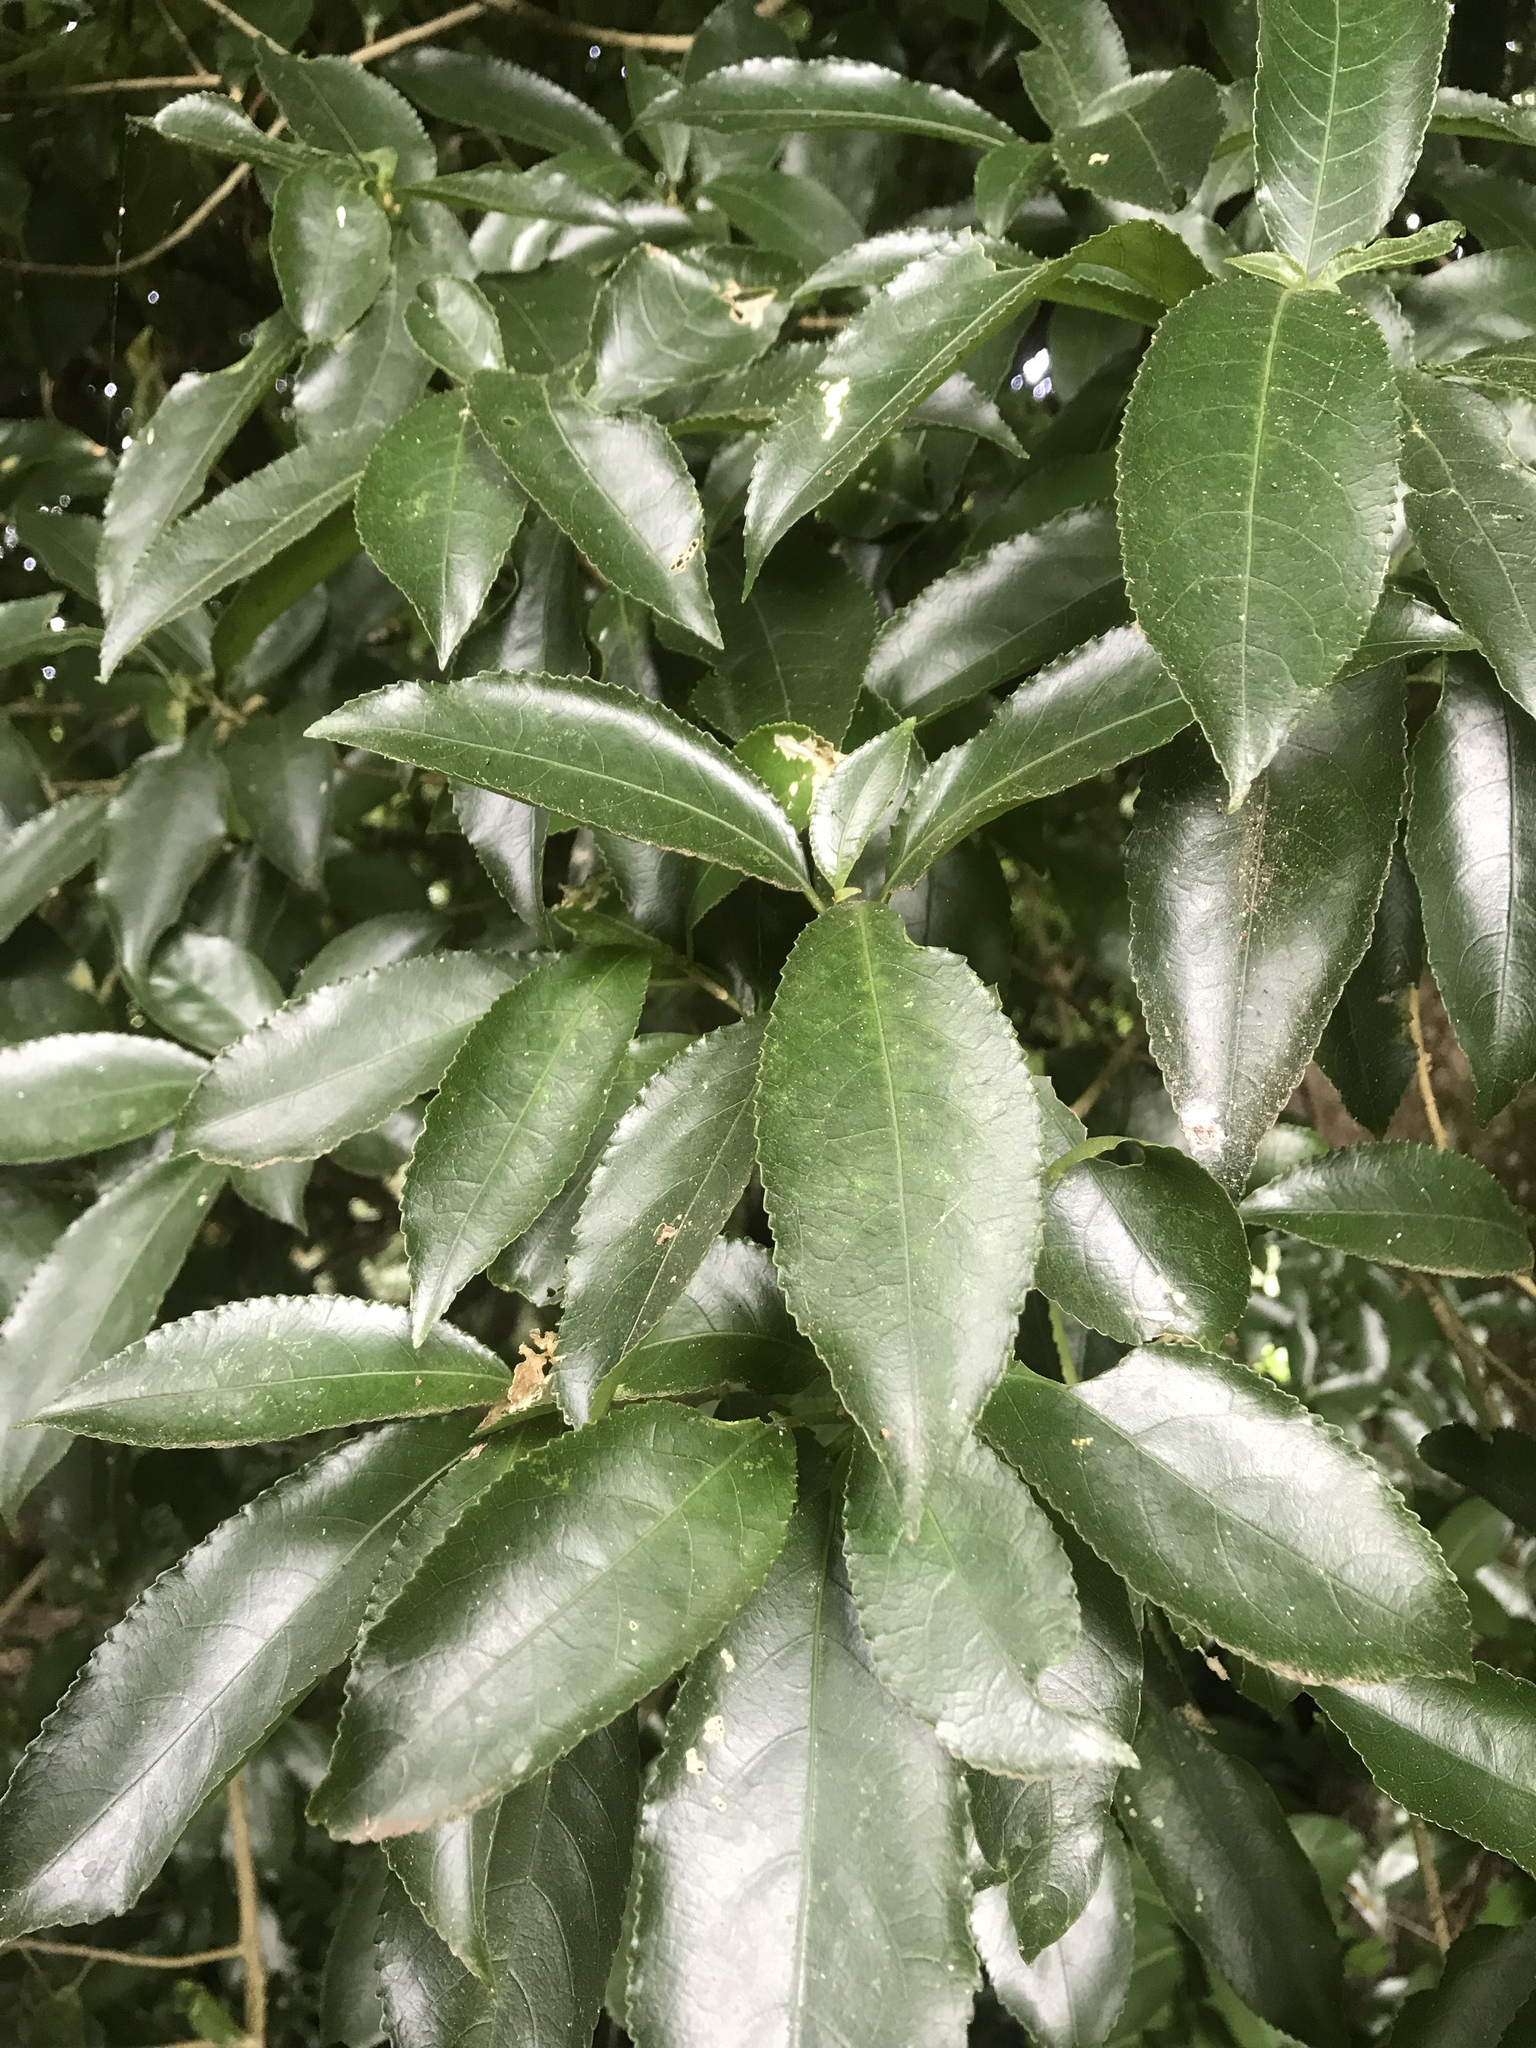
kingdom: Plantae
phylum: Tracheophyta
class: Magnoliopsida
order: Malpighiales
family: Violaceae
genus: Melicytus
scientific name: Melicytus ramiflorus
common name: Mahoe
